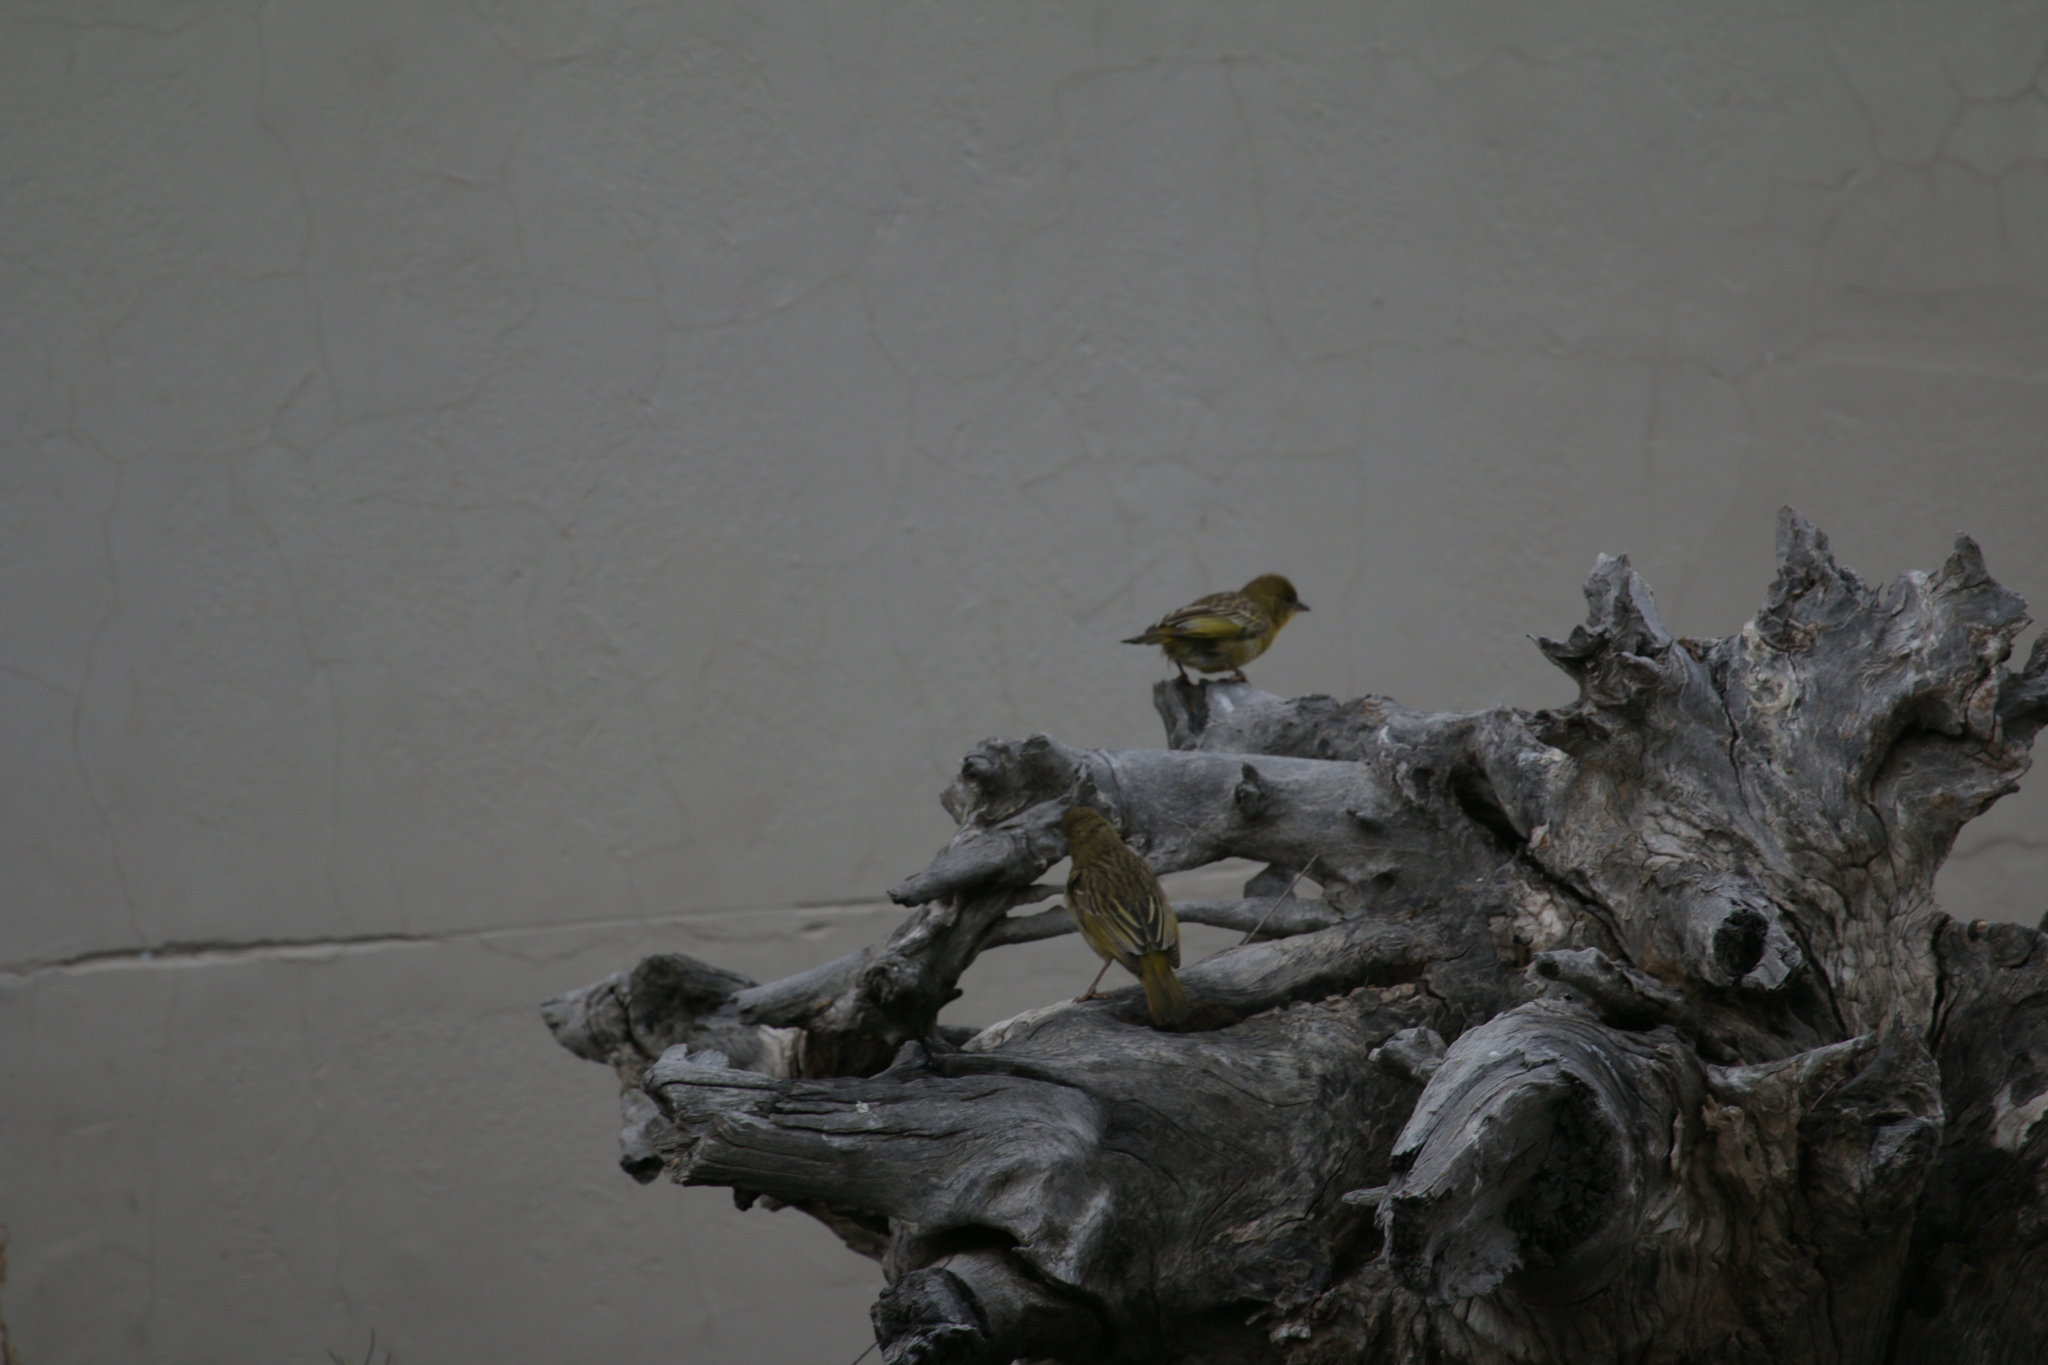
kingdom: Animalia
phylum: Chordata
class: Aves
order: Passeriformes
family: Ploceidae
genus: Ploceus
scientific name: Ploceus velatus
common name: Southern masked weaver
